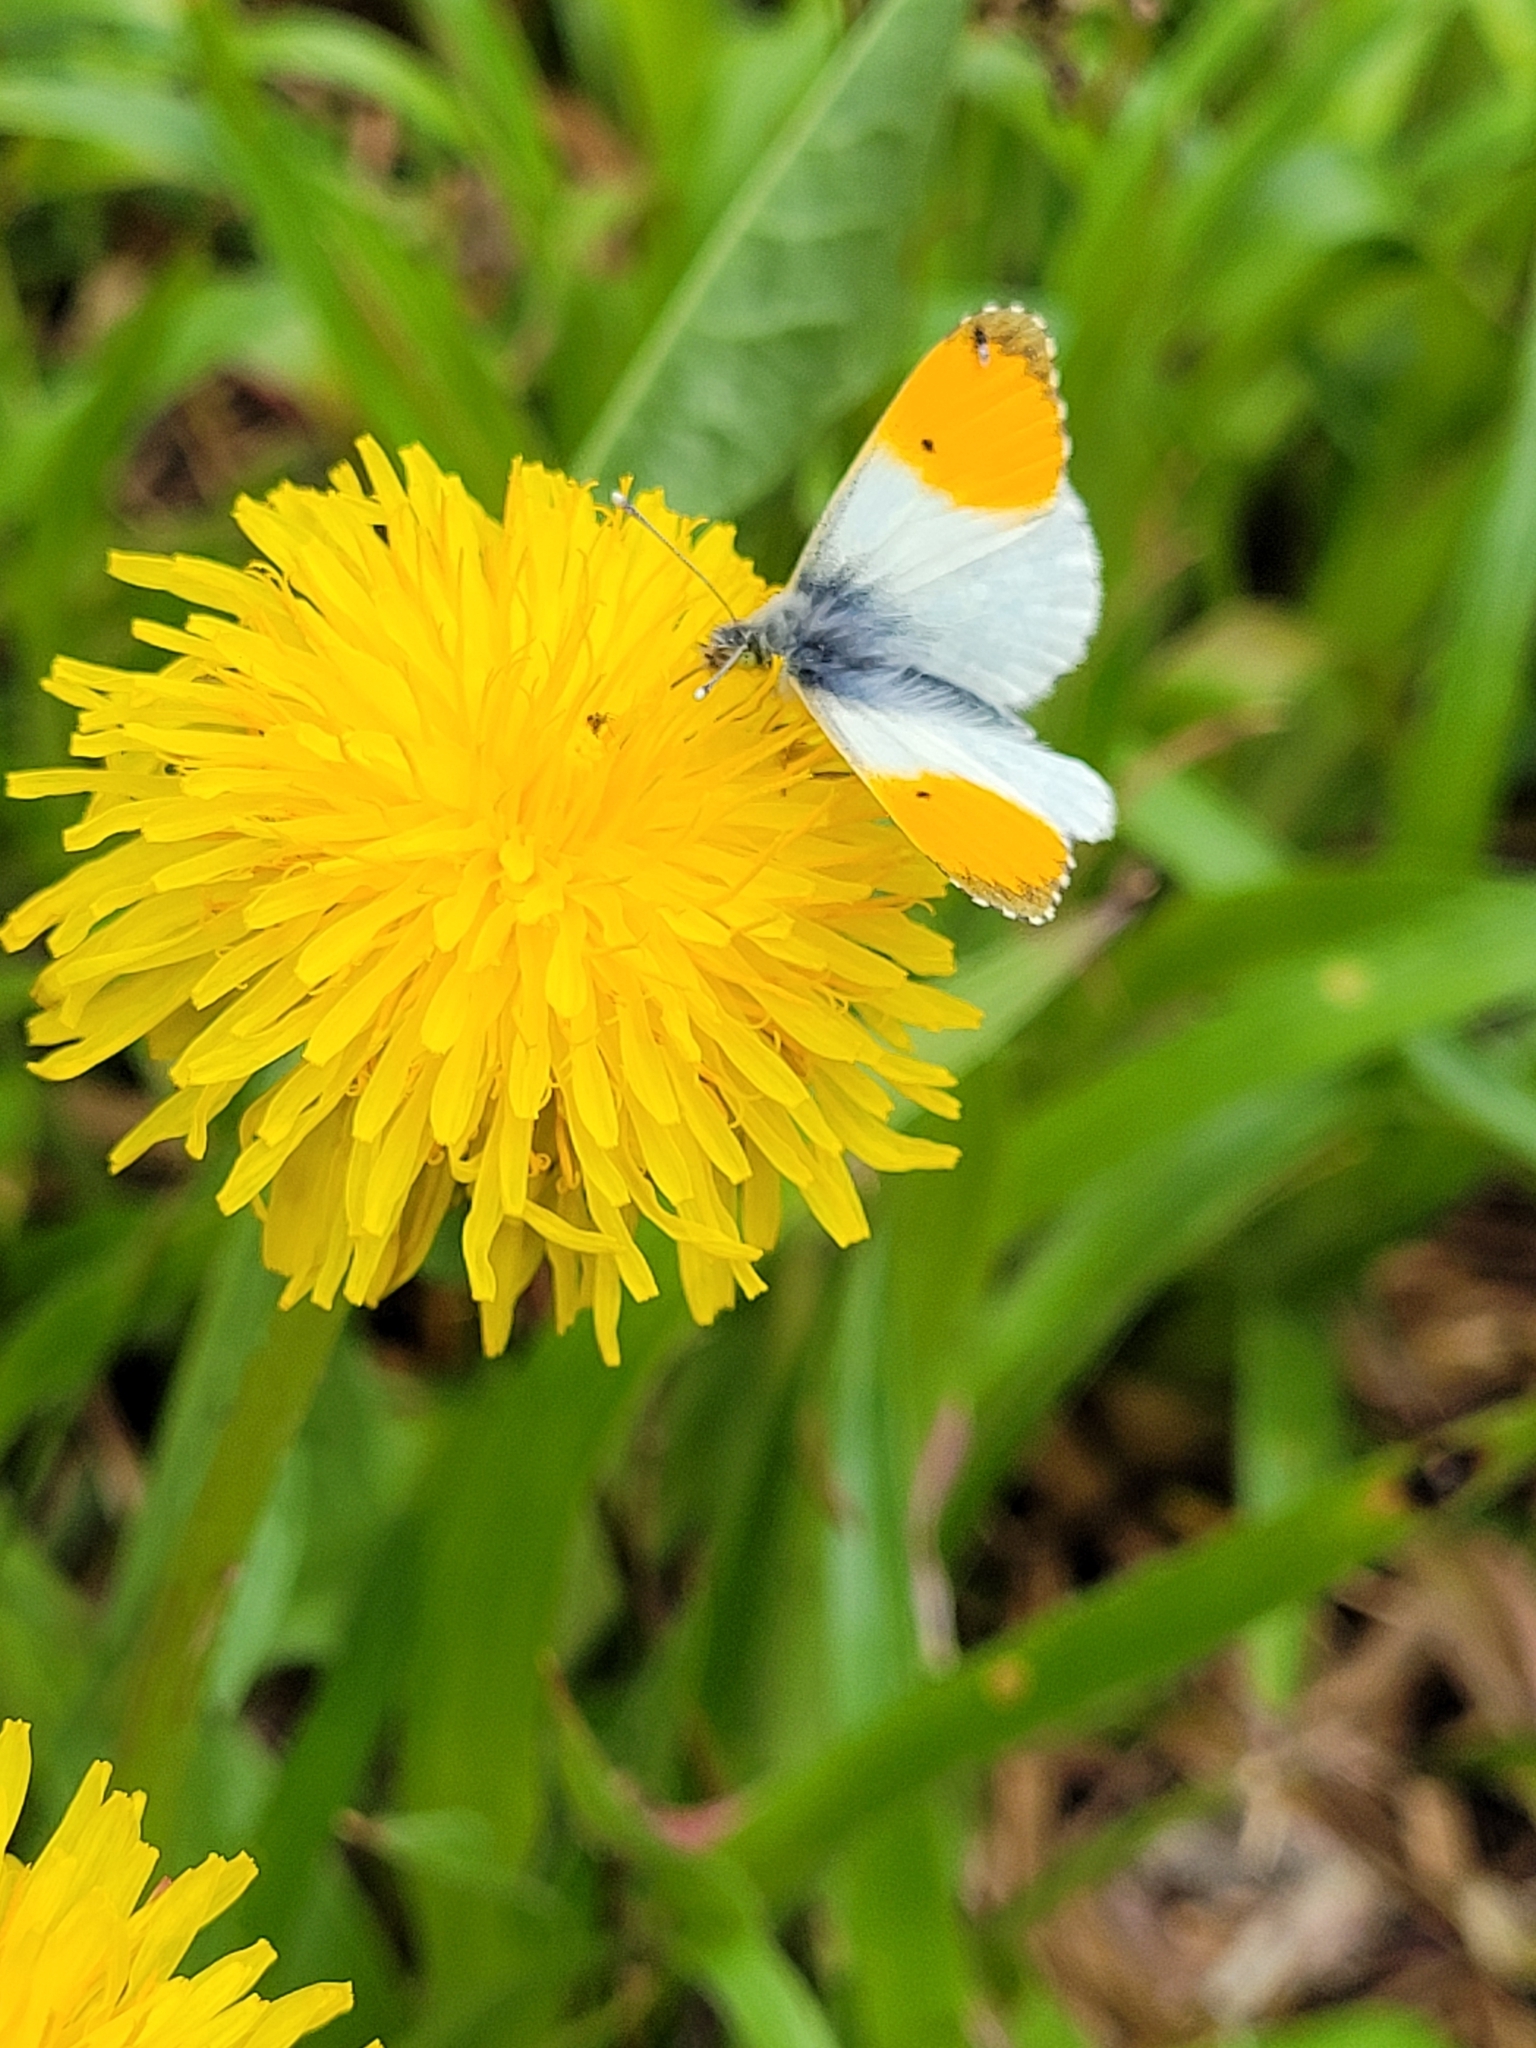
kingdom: Animalia
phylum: Arthropoda
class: Insecta
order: Lepidoptera
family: Pieridae
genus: Anthocharis
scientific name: Anthocharis cardamines
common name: Orange-tip
